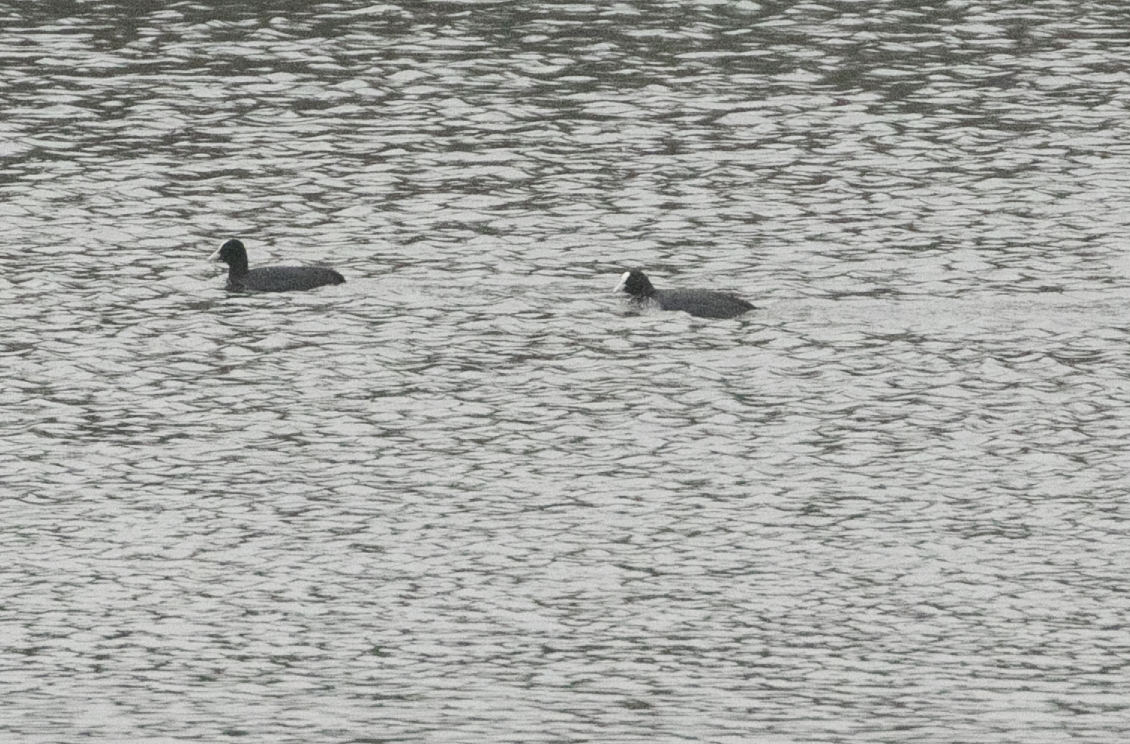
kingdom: Animalia
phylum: Chordata
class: Aves
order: Gruiformes
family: Rallidae
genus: Fulica
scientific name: Fulica atra
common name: Eurasian coot
